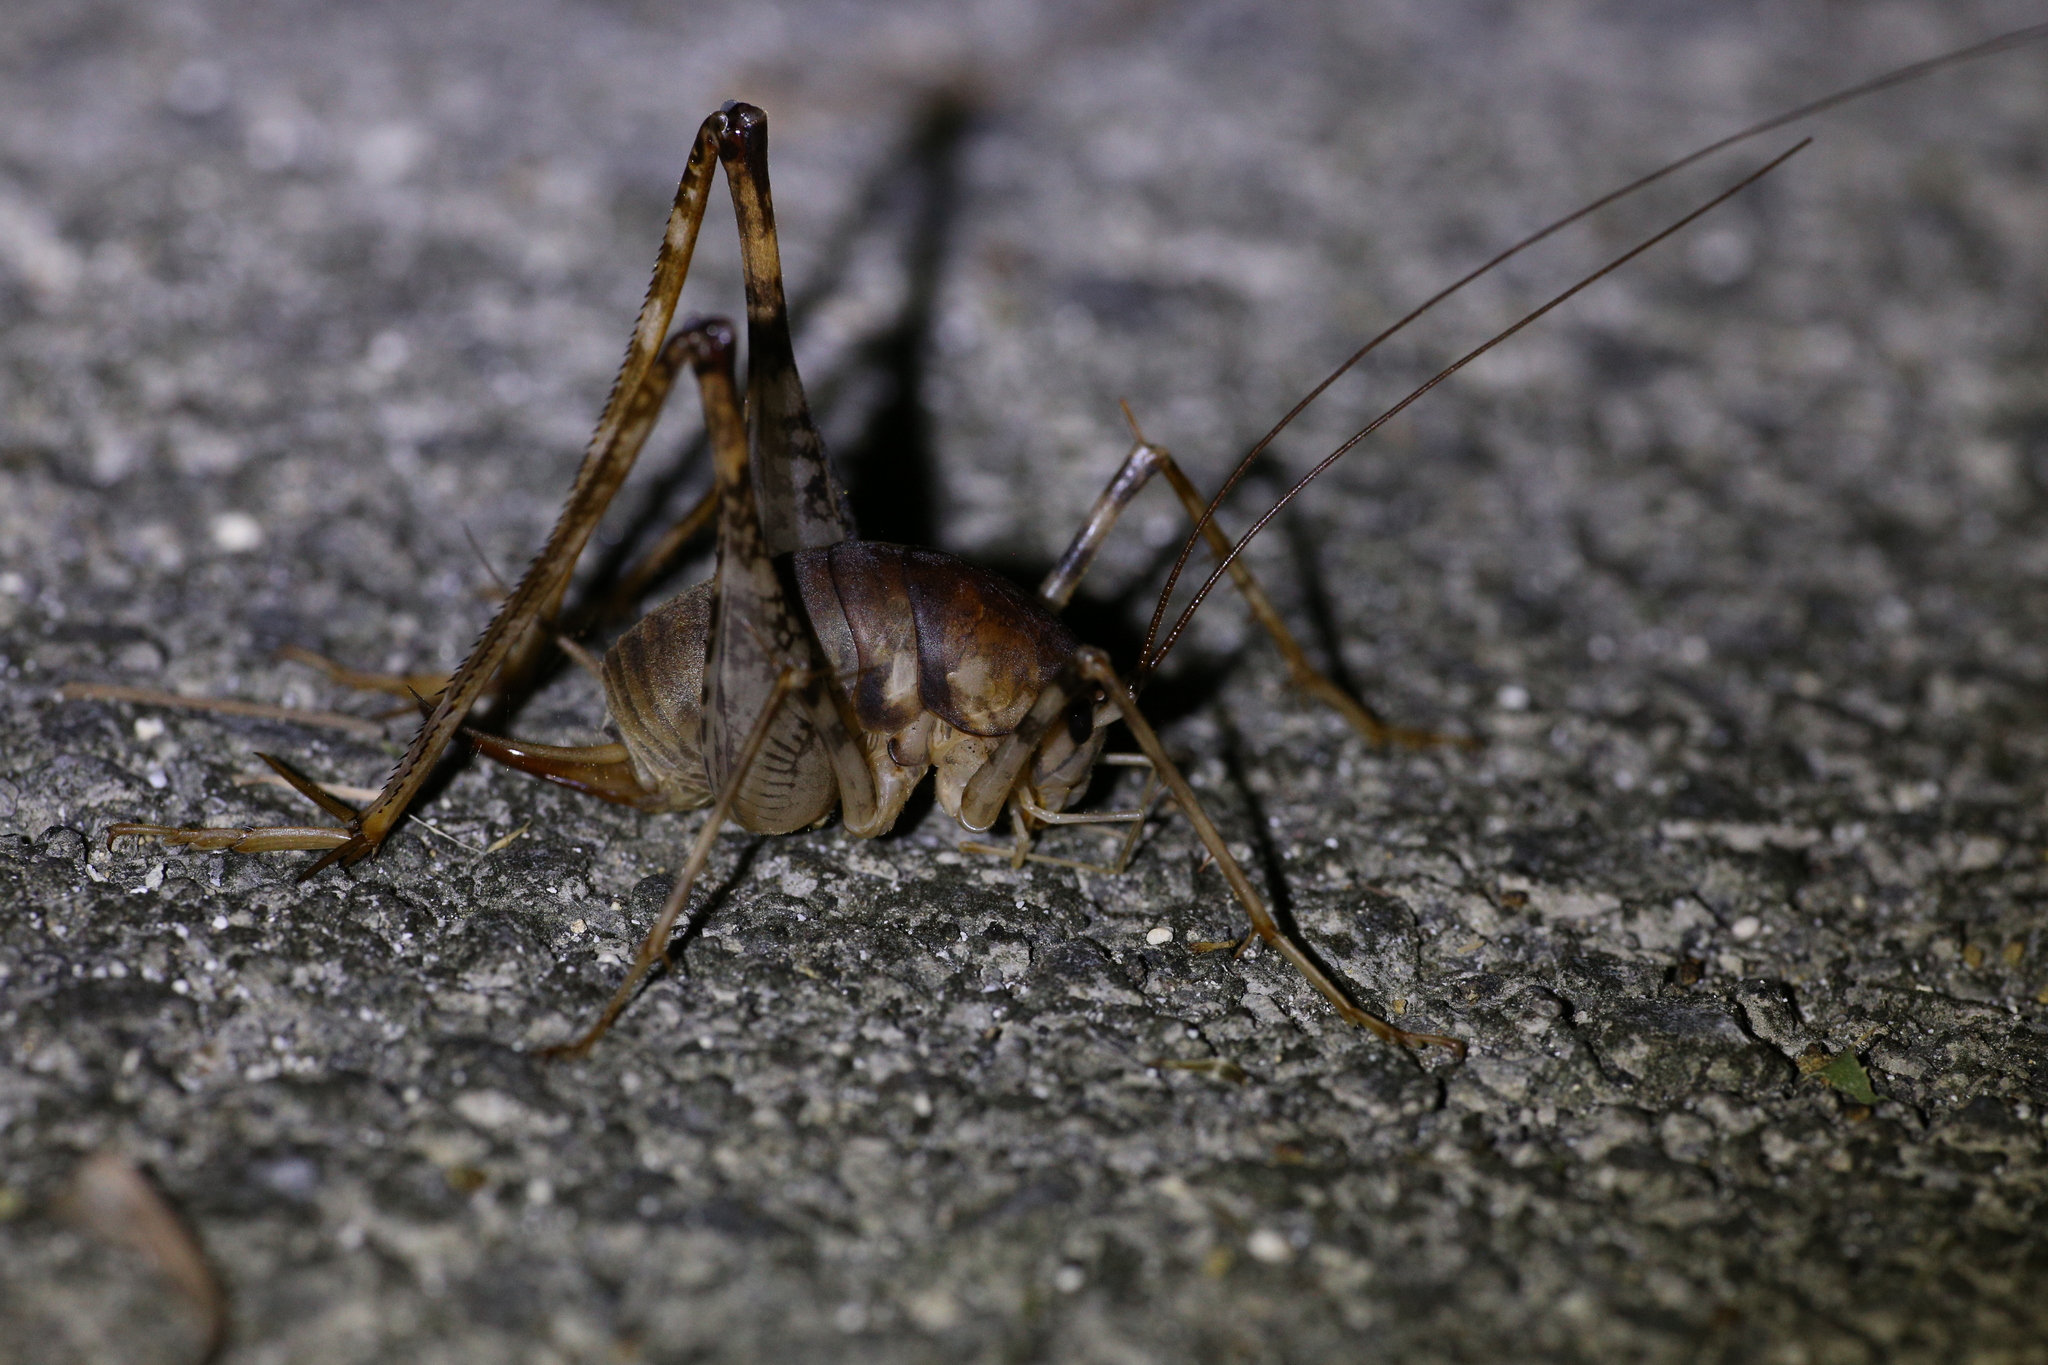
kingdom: Animalia
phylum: Arthropoda
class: Insecta
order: Orthoptera
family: Rhaphidophoridae
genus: Diestrammena
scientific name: Diestrammena iriomotensis
